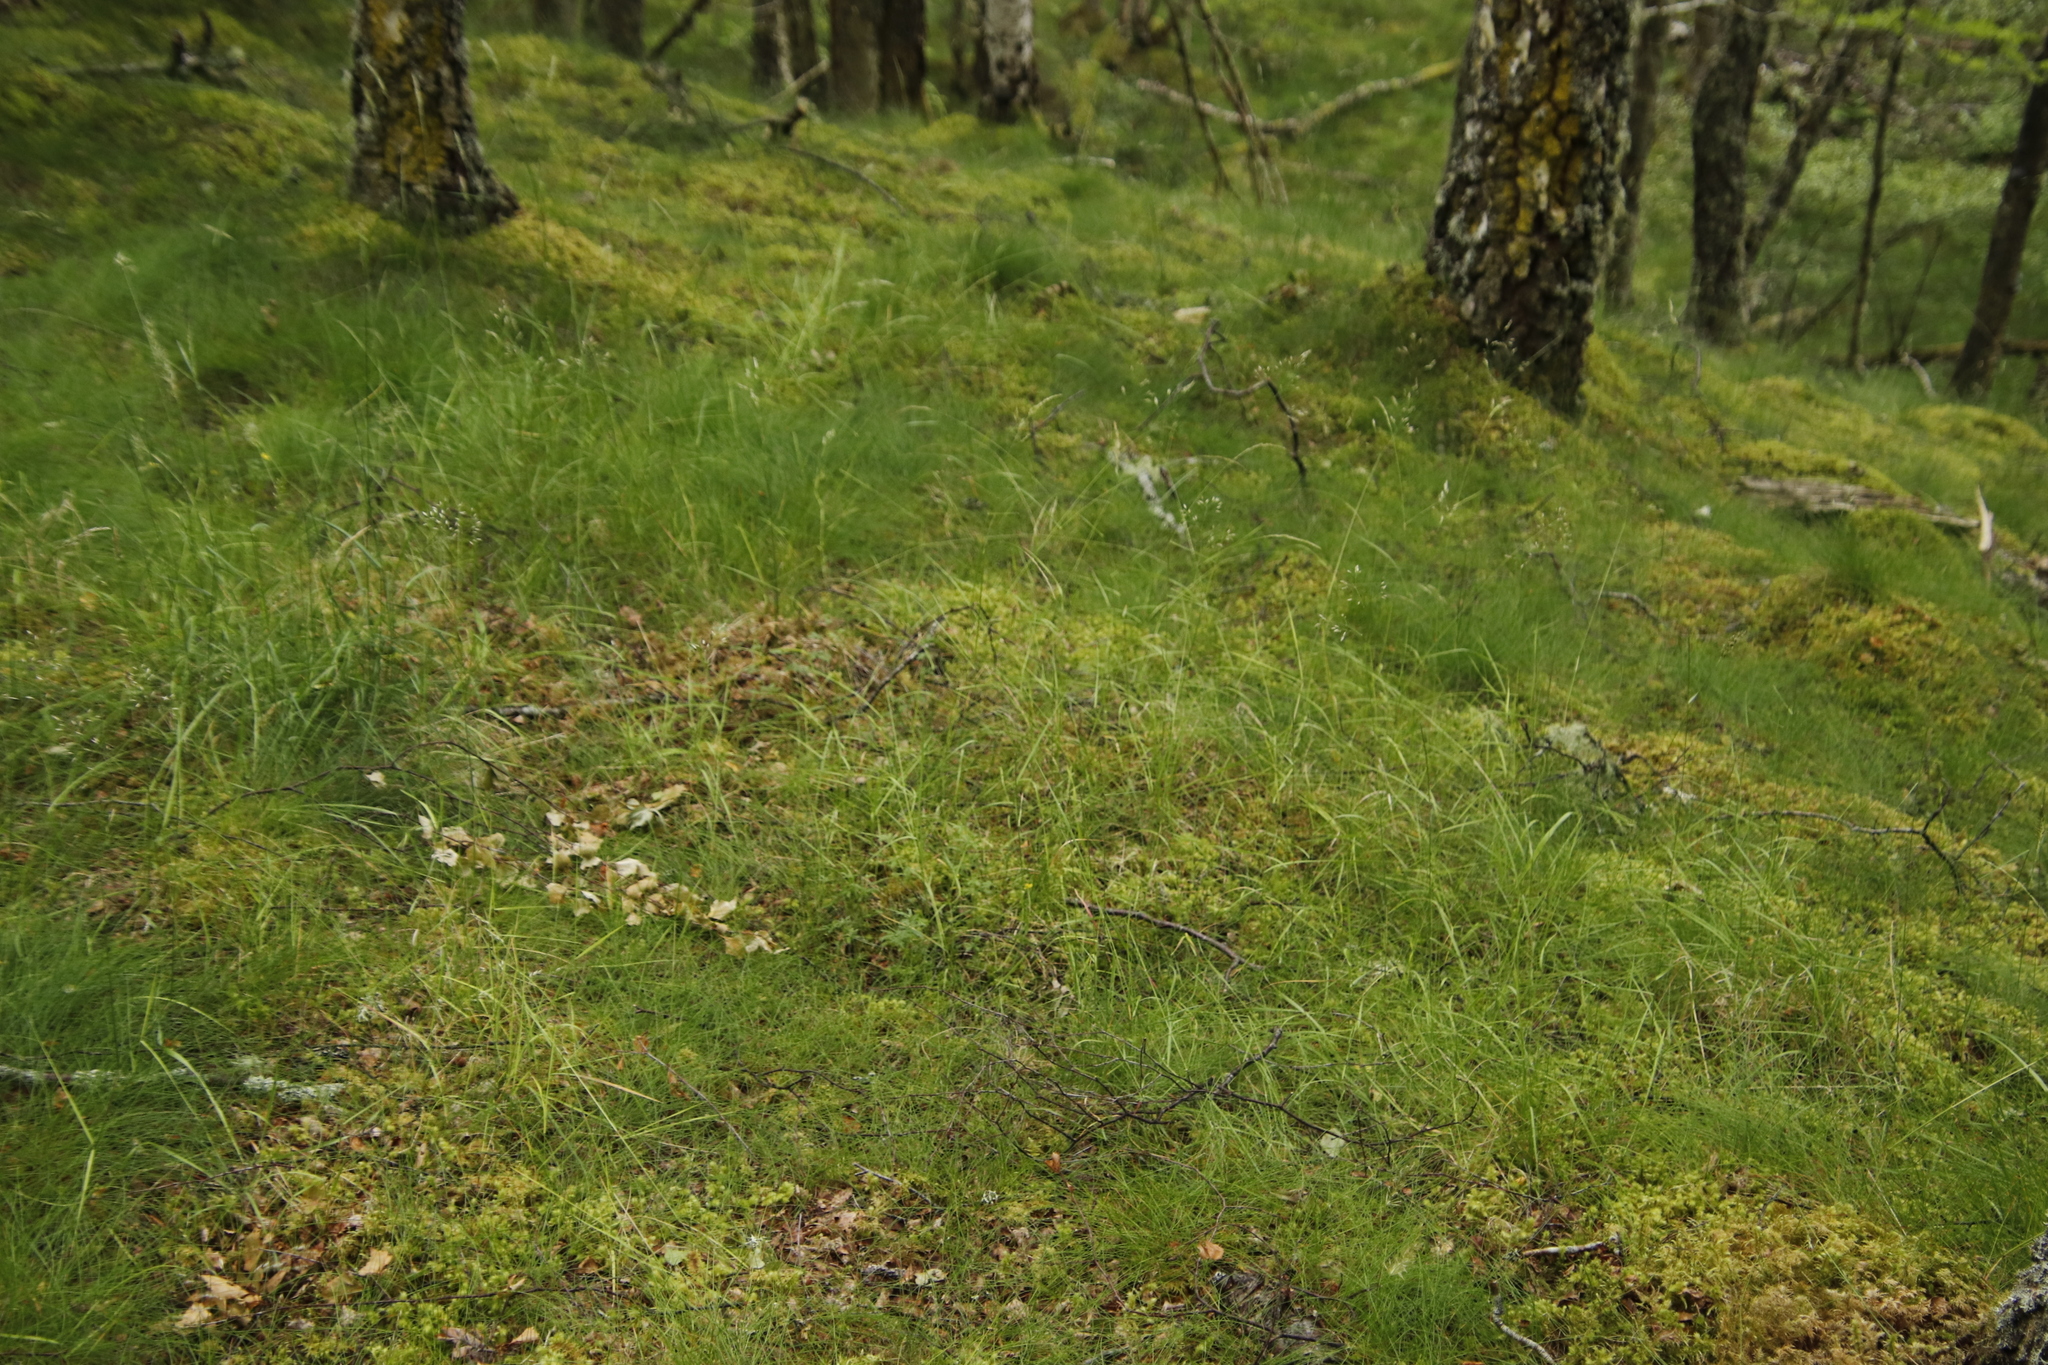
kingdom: Plantae
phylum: Bryophyta
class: Bryopsida
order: Hypnales
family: Hypnaceae
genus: Hypnum
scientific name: Hypnum cupressiforme
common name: Cypress-leaved plait-moss
